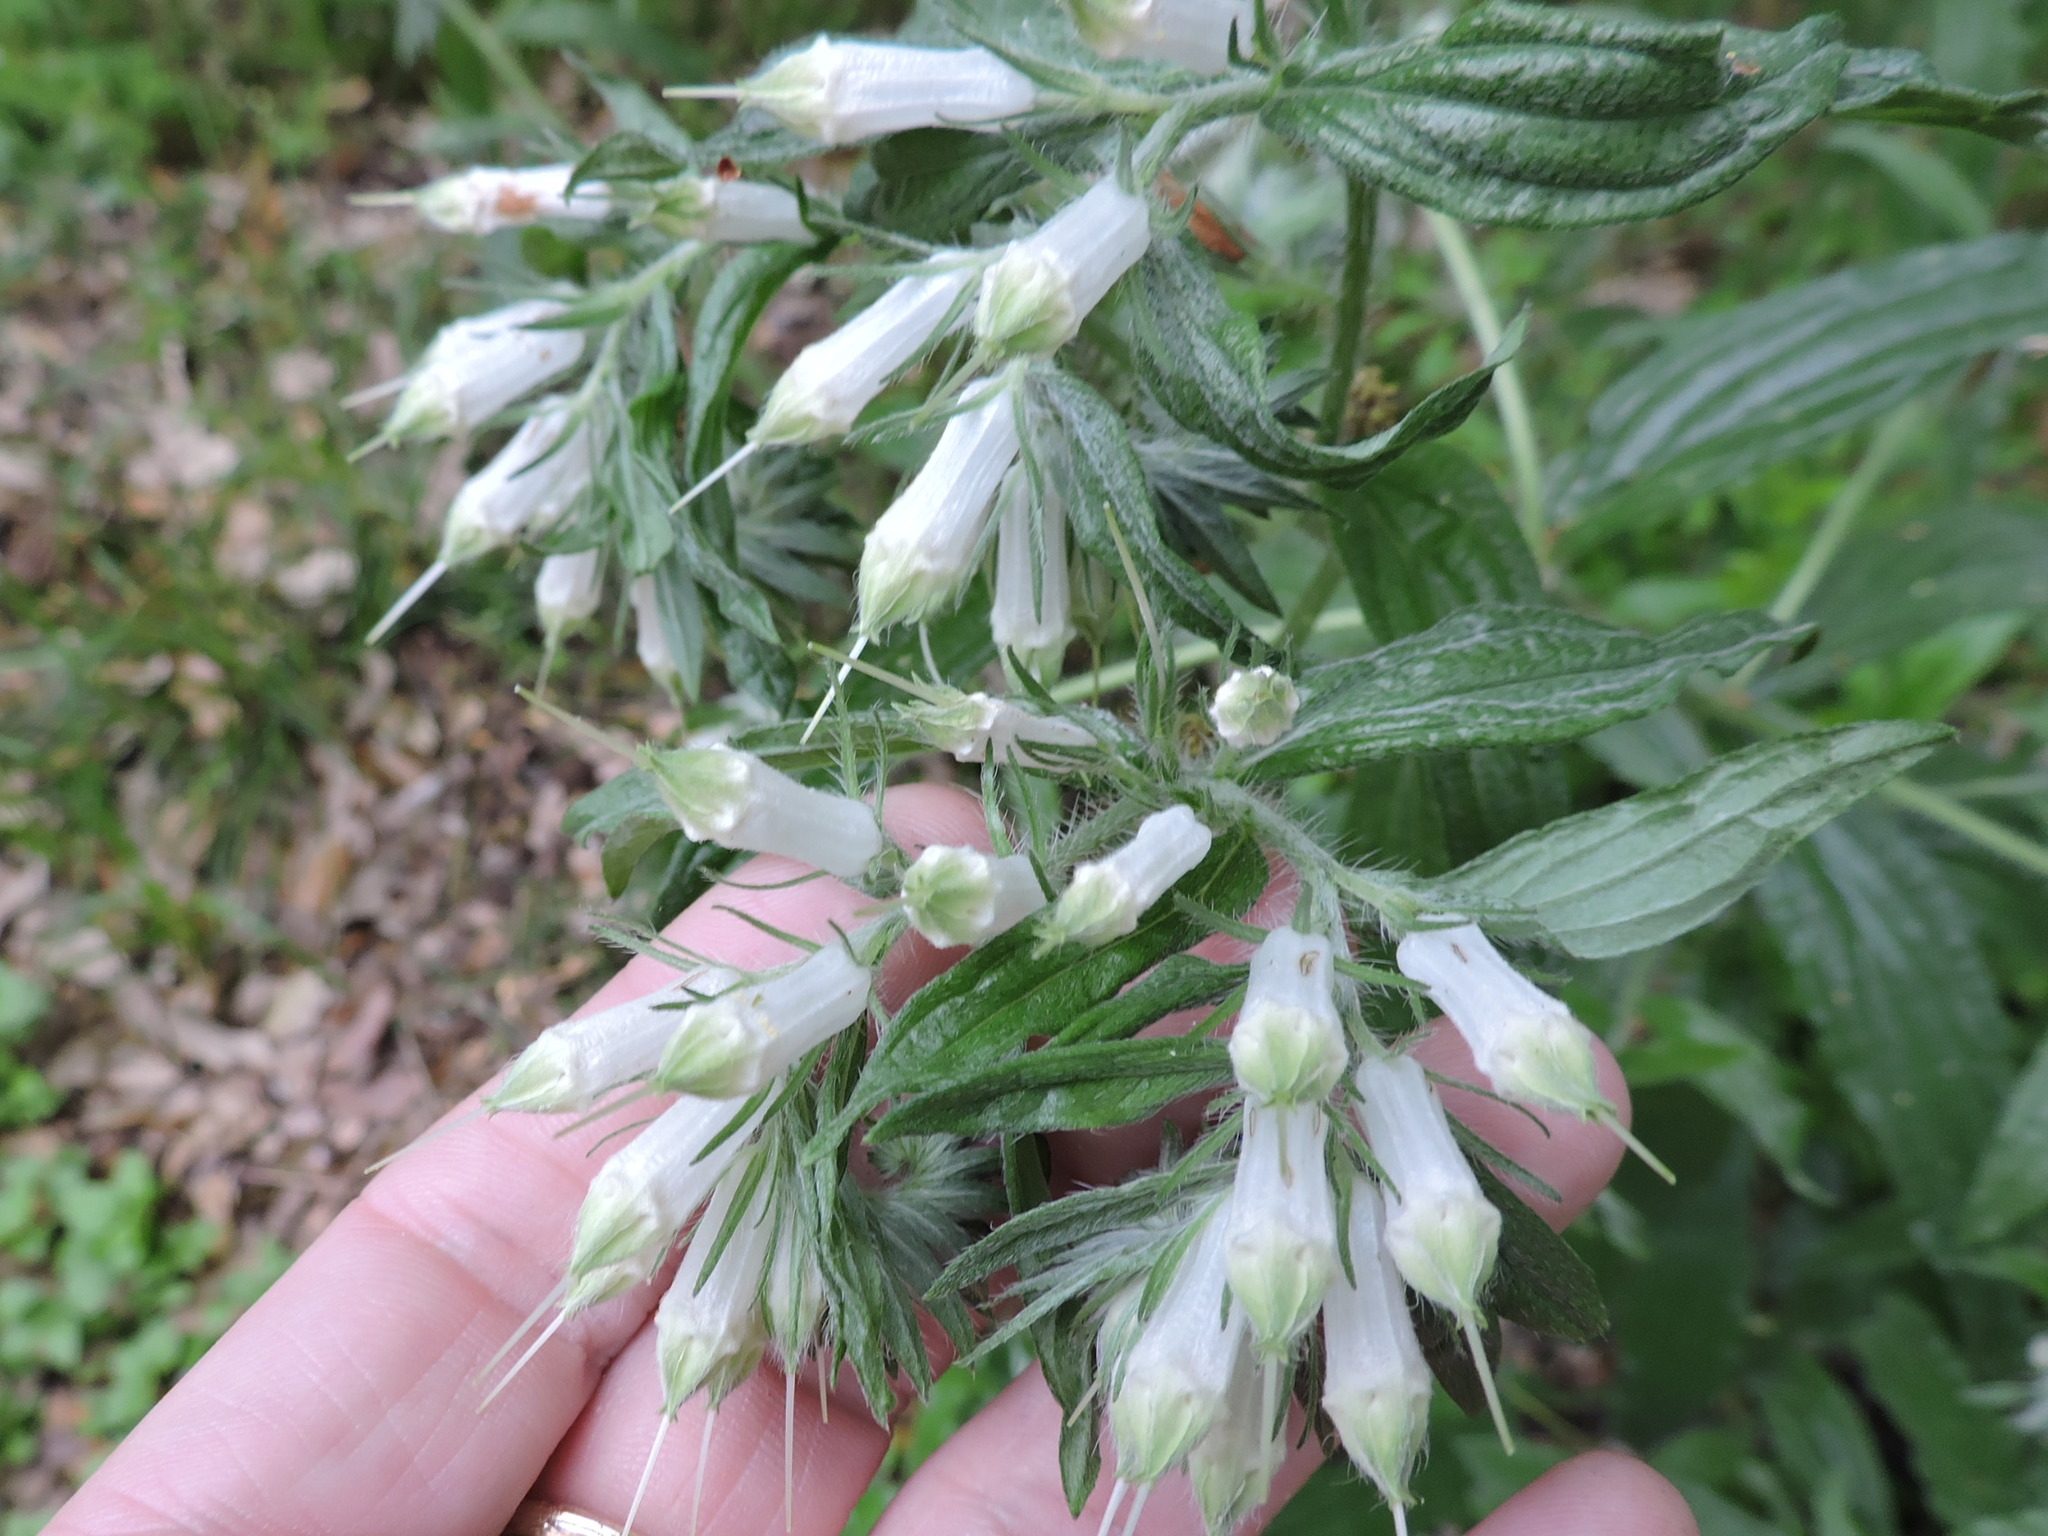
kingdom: Plantae
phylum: Tracheophyta
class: Magnoliopsida
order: Boraginales
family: Boraginaceae
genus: Lithospermum
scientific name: Lithospermum caroliniense
